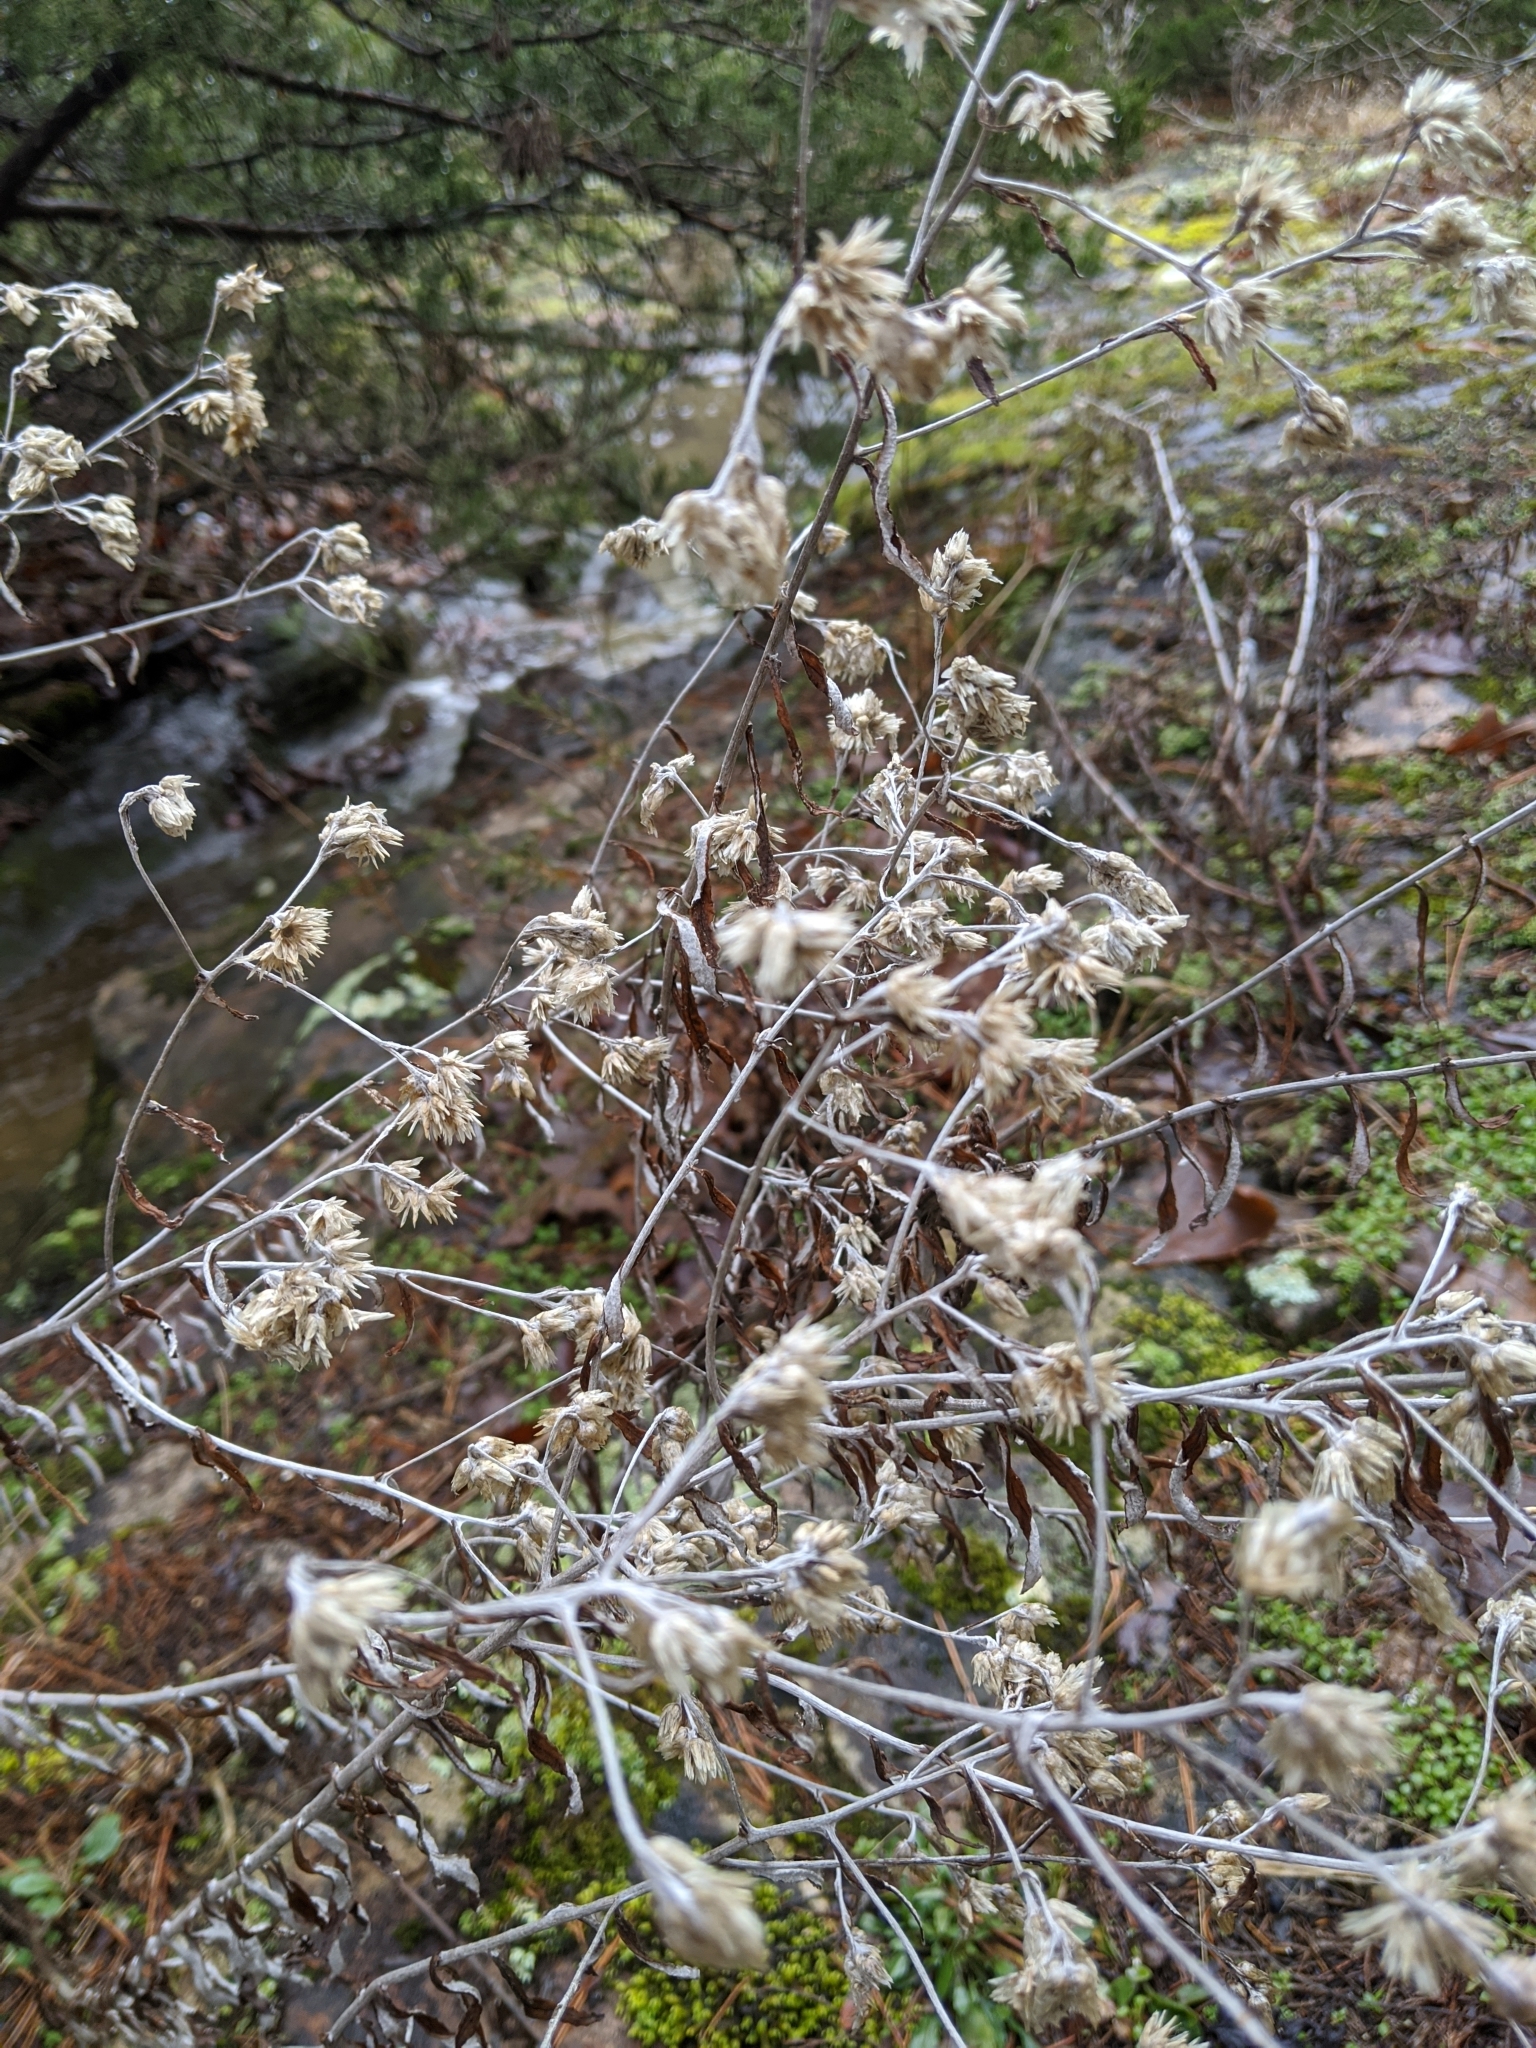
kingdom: Plantae
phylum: Tracheophyta
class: Magnoliopsida
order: Asterales
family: Asteraceae
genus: Pseudognaphalium
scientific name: Pseudognaphalium obtusifolium
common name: Eastern rabbit-tobacco
